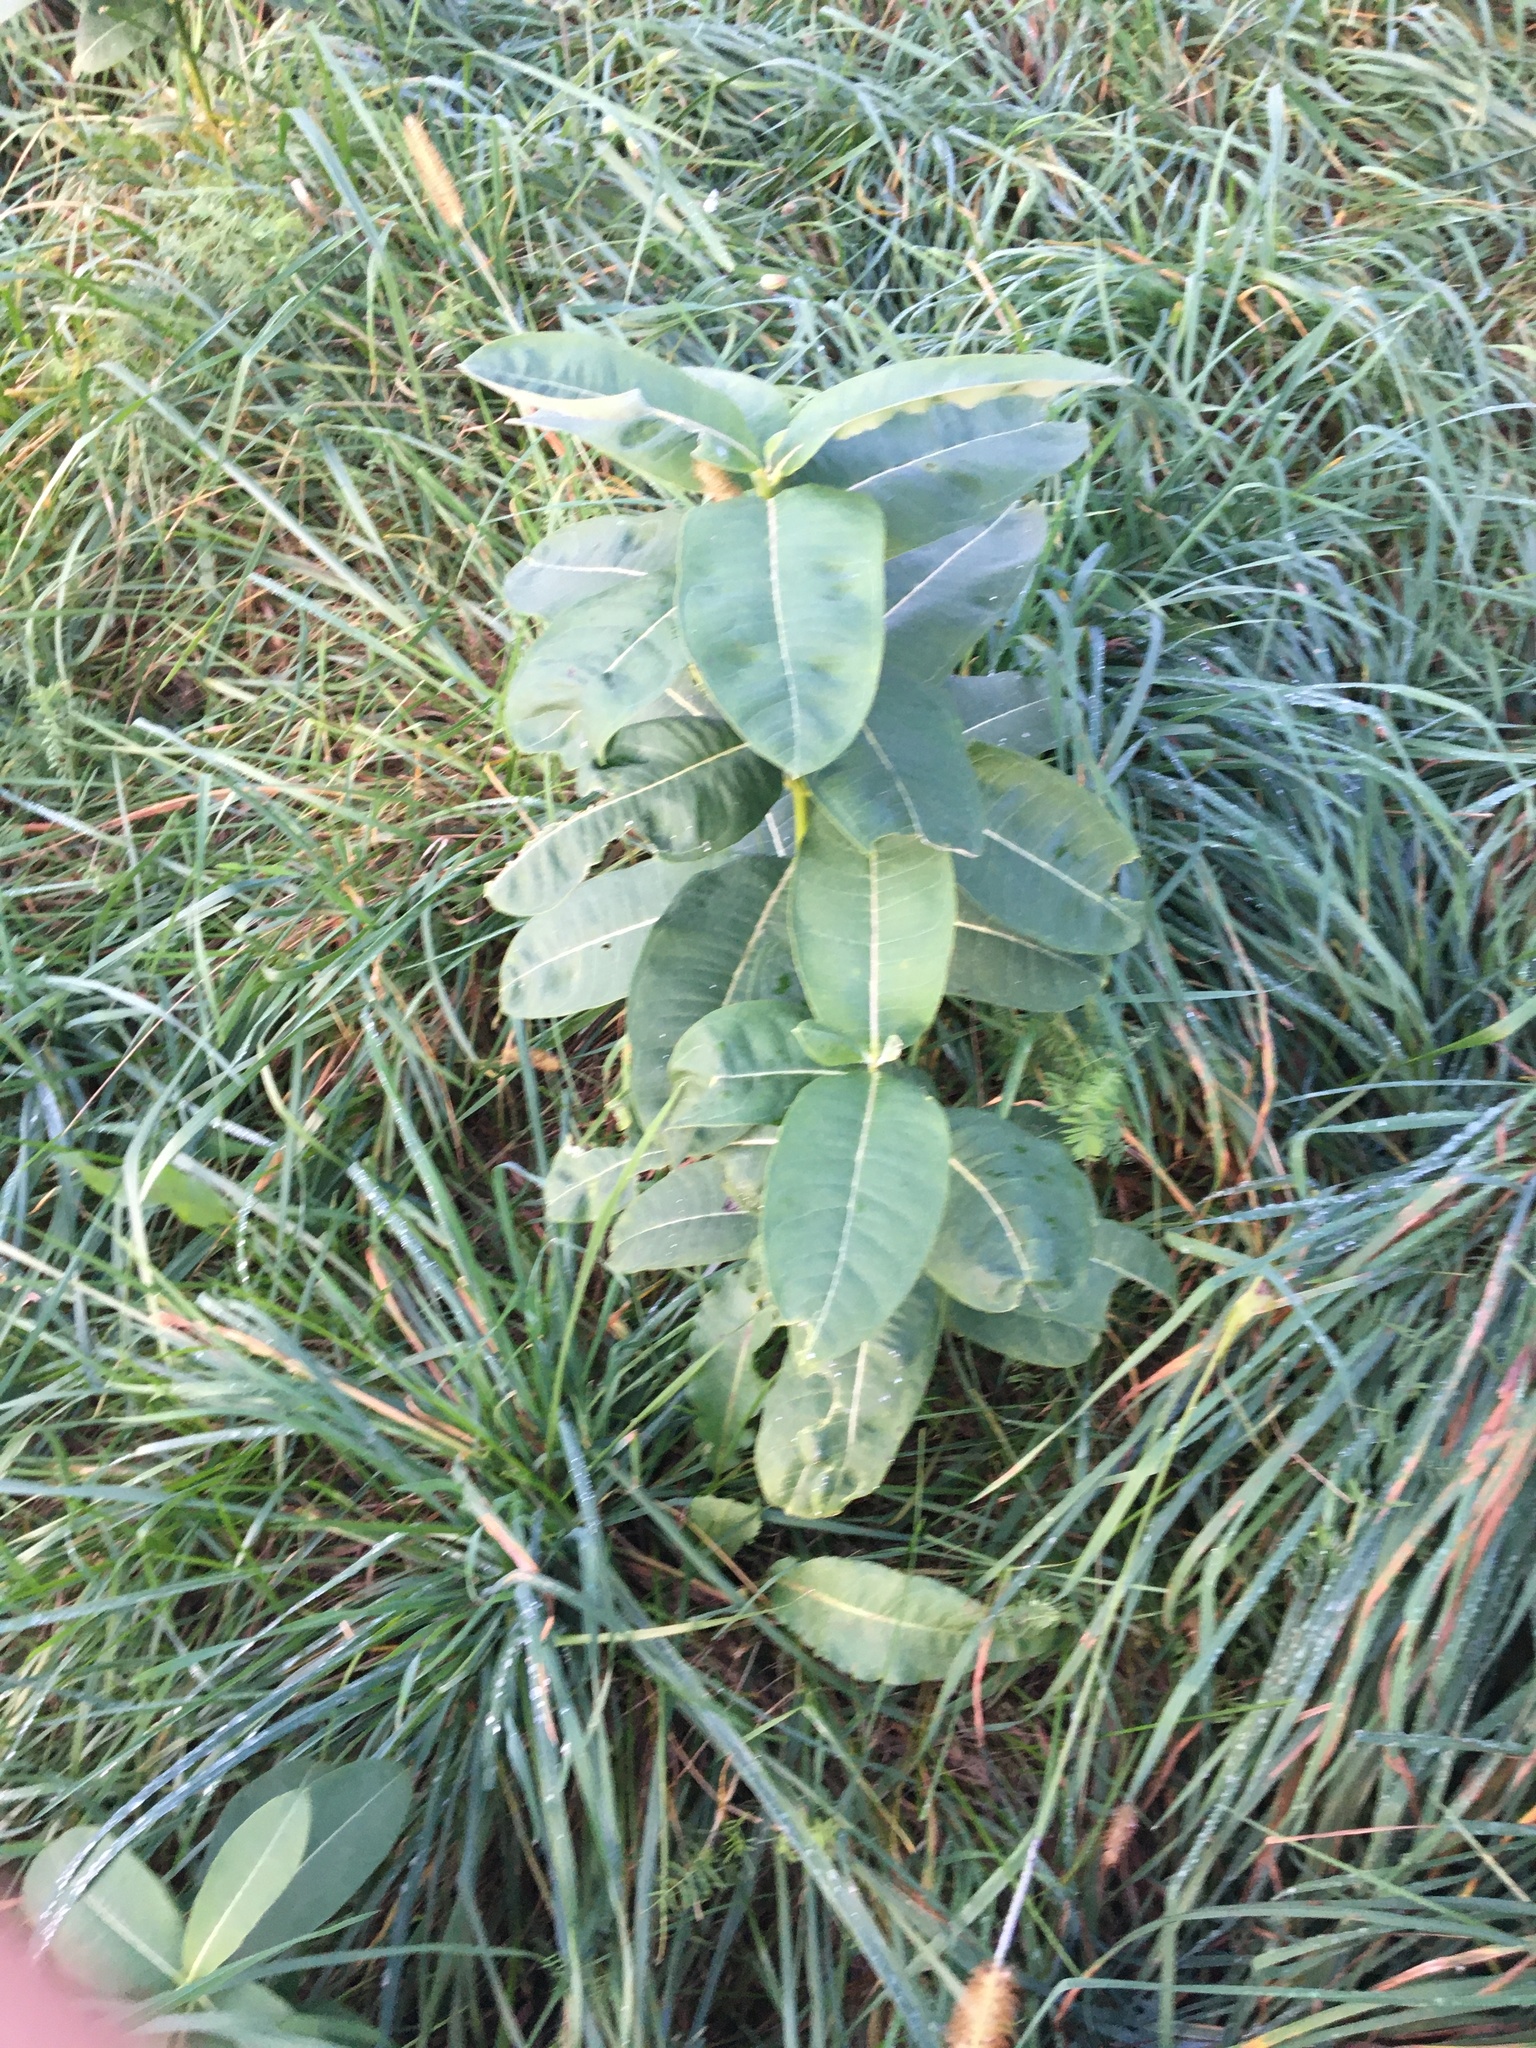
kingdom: Plantae
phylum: Tracheophyta
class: Magnoliopsida
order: Gentianales
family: Apocynaceae
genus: Asclepias
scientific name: Asclepias syriaca
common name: Common milkweed
